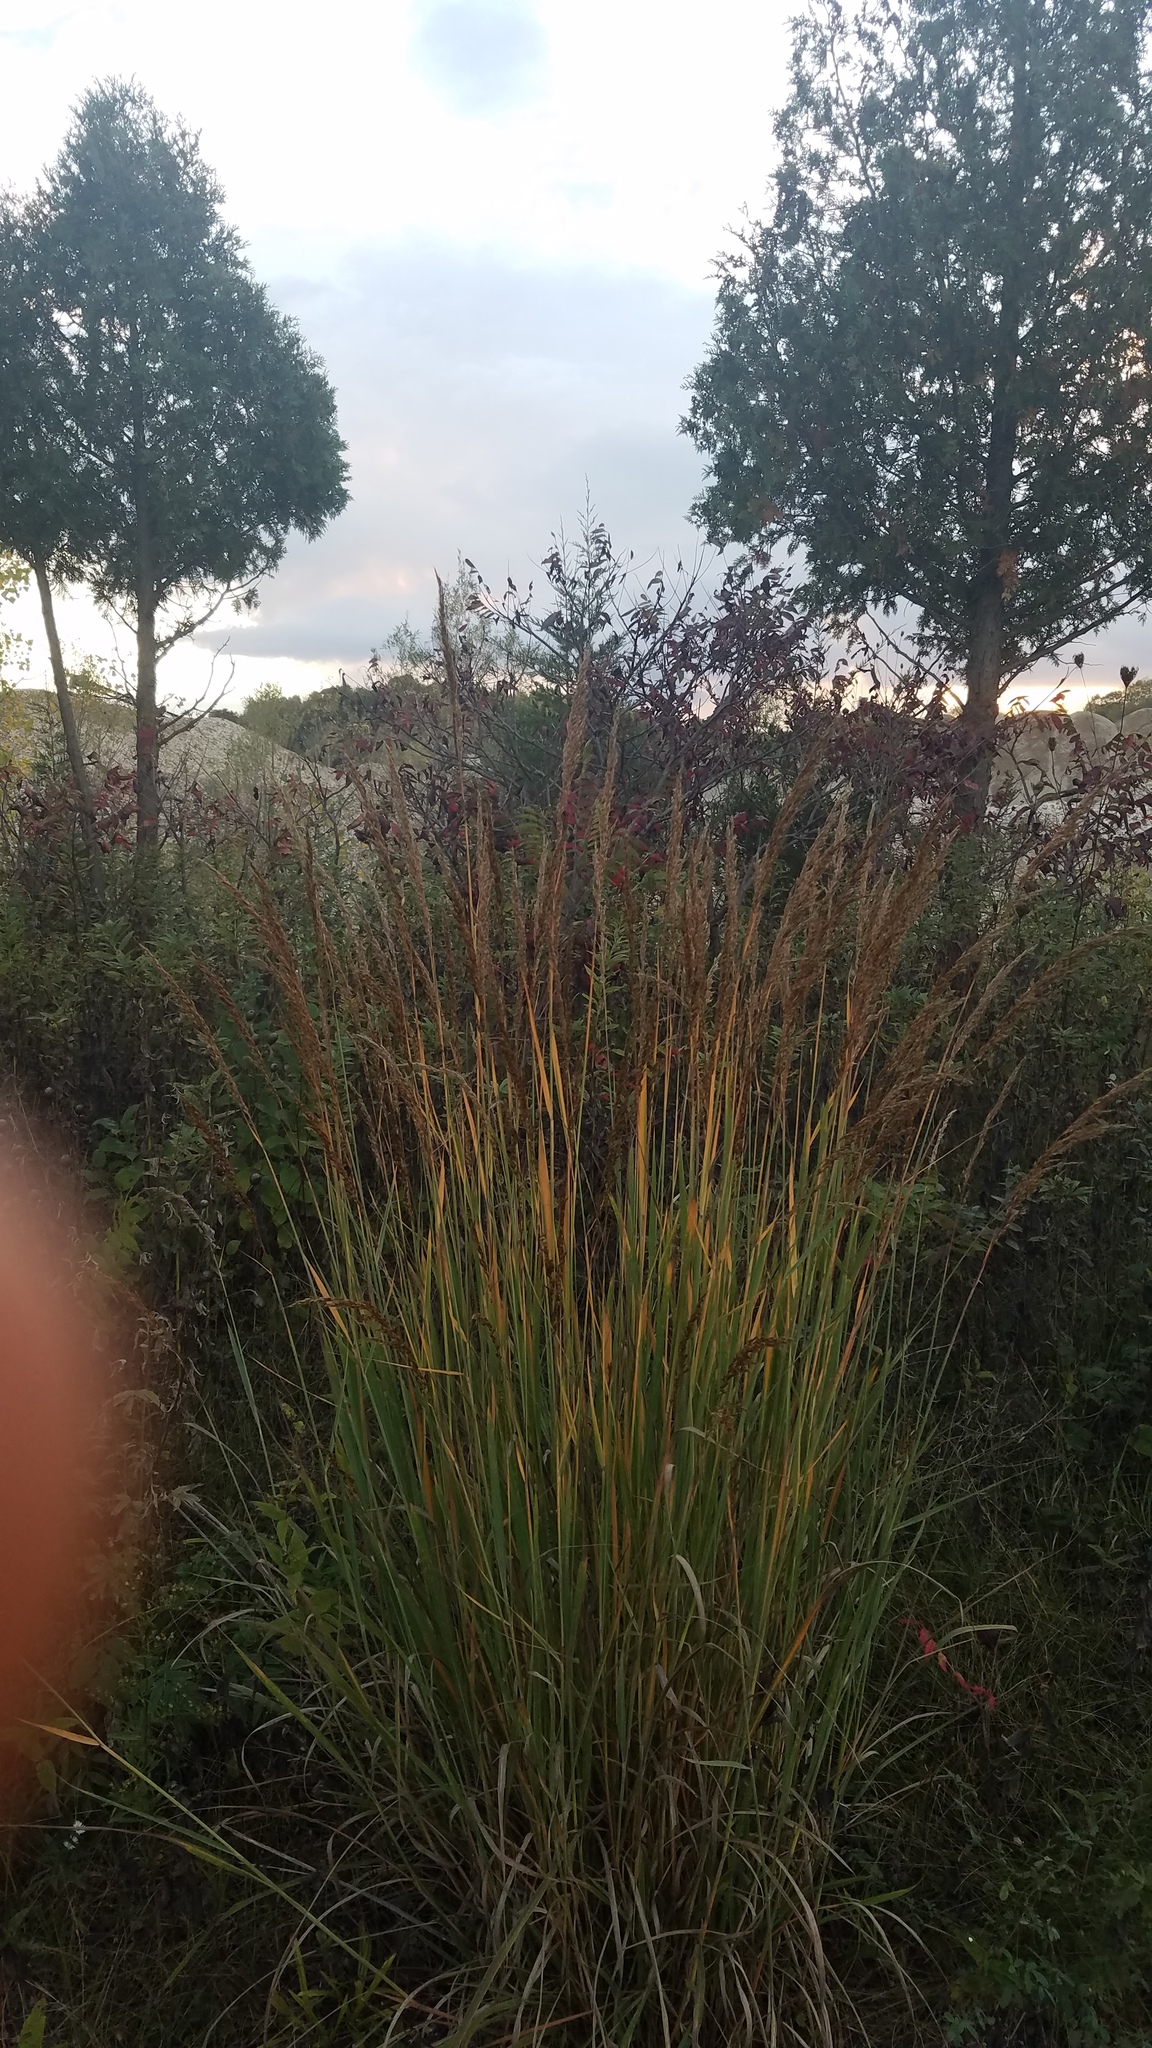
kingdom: Plantae
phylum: Tracheophyta
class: Liliopsida
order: Poales
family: Poaceae
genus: Sorghastrum
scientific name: Sorghastrum nutans
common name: Indian grass
